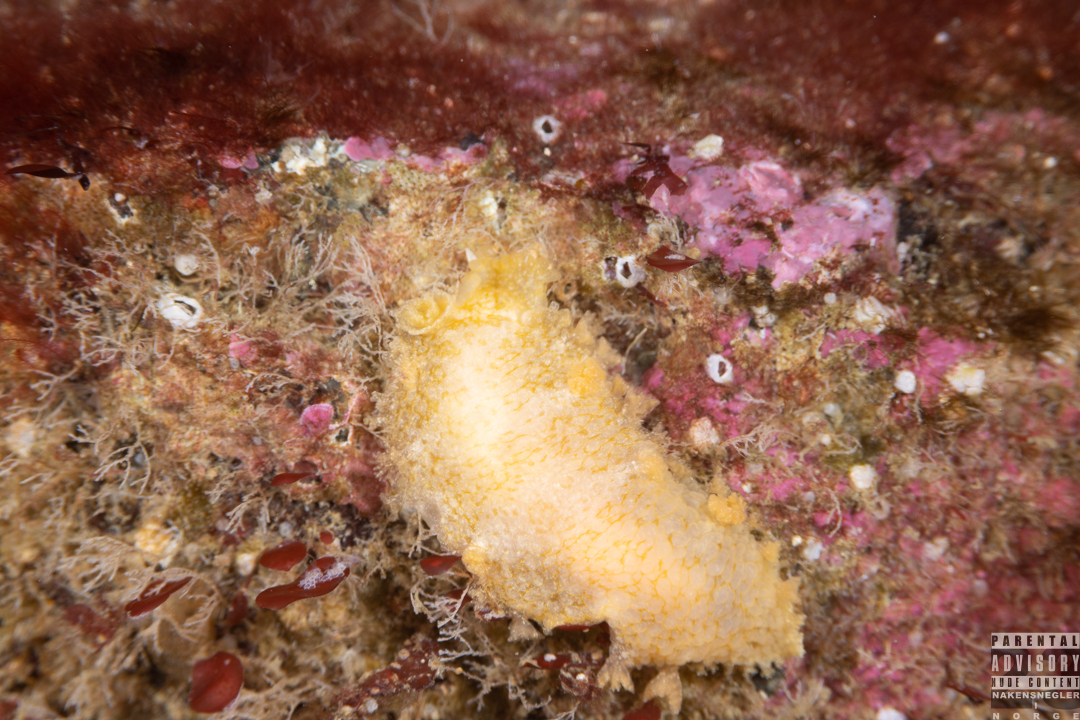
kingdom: Animalia
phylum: Mollusca
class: Gastropoda
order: Nudibranchia
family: Tritoniidae
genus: Tritonia
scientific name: Tritonia hombergii
